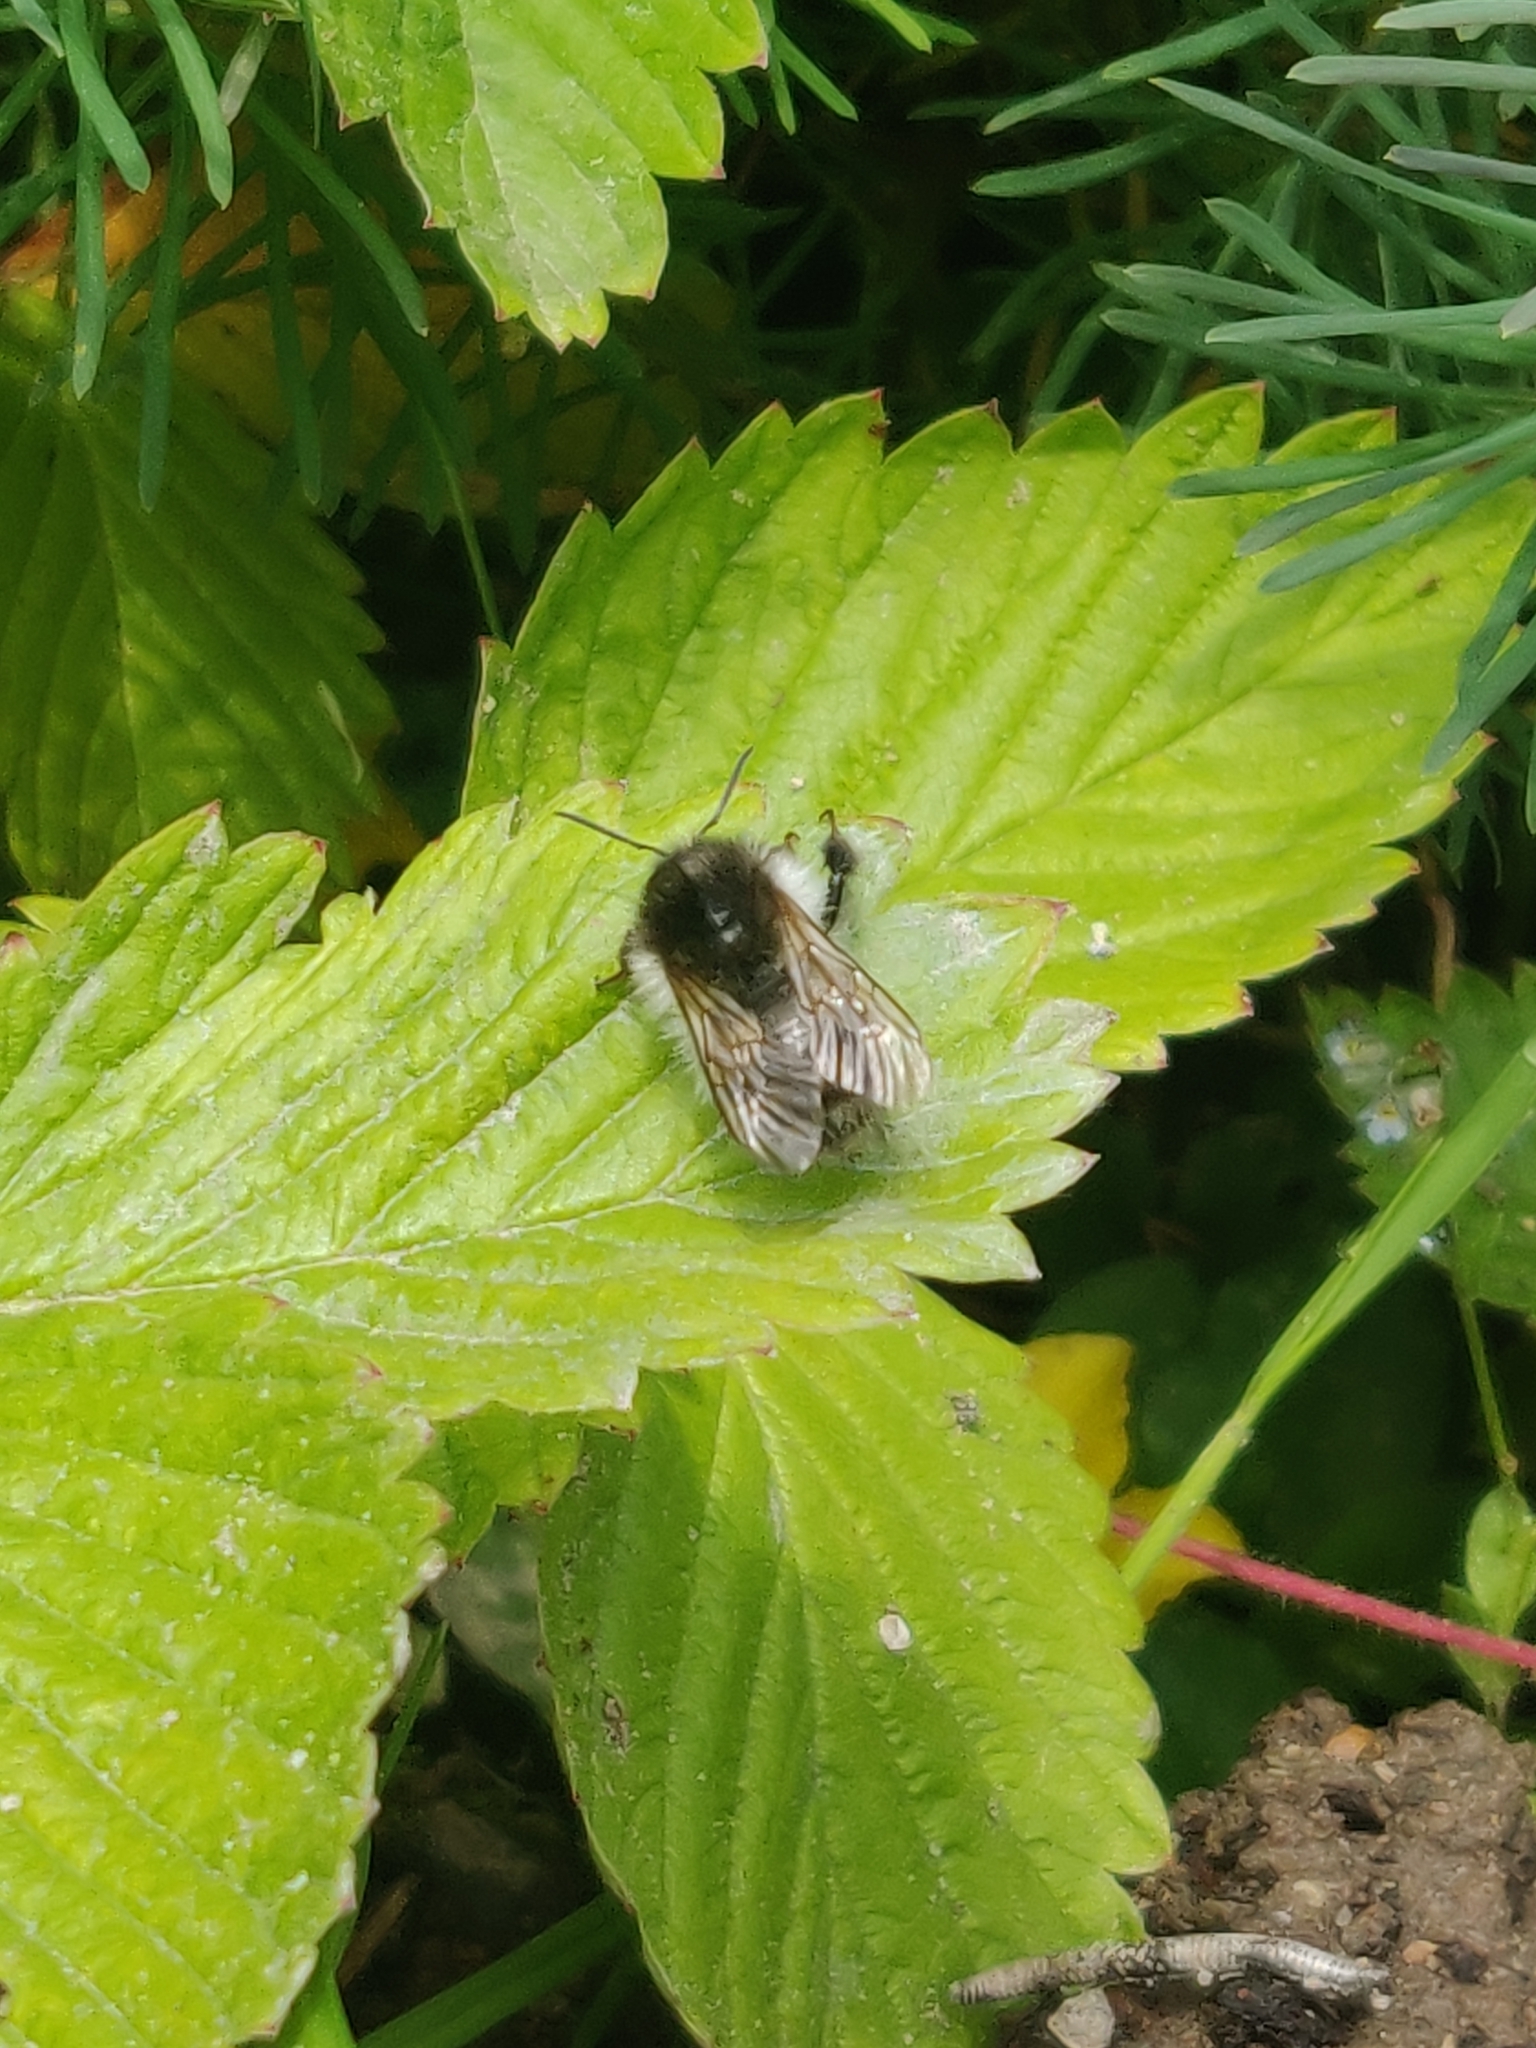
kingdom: Animalia
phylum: Arthropoda
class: Insecta
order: Hymenoptera
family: Apidae
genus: Bombus
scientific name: Bombus pascuorum
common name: Common carder bee
